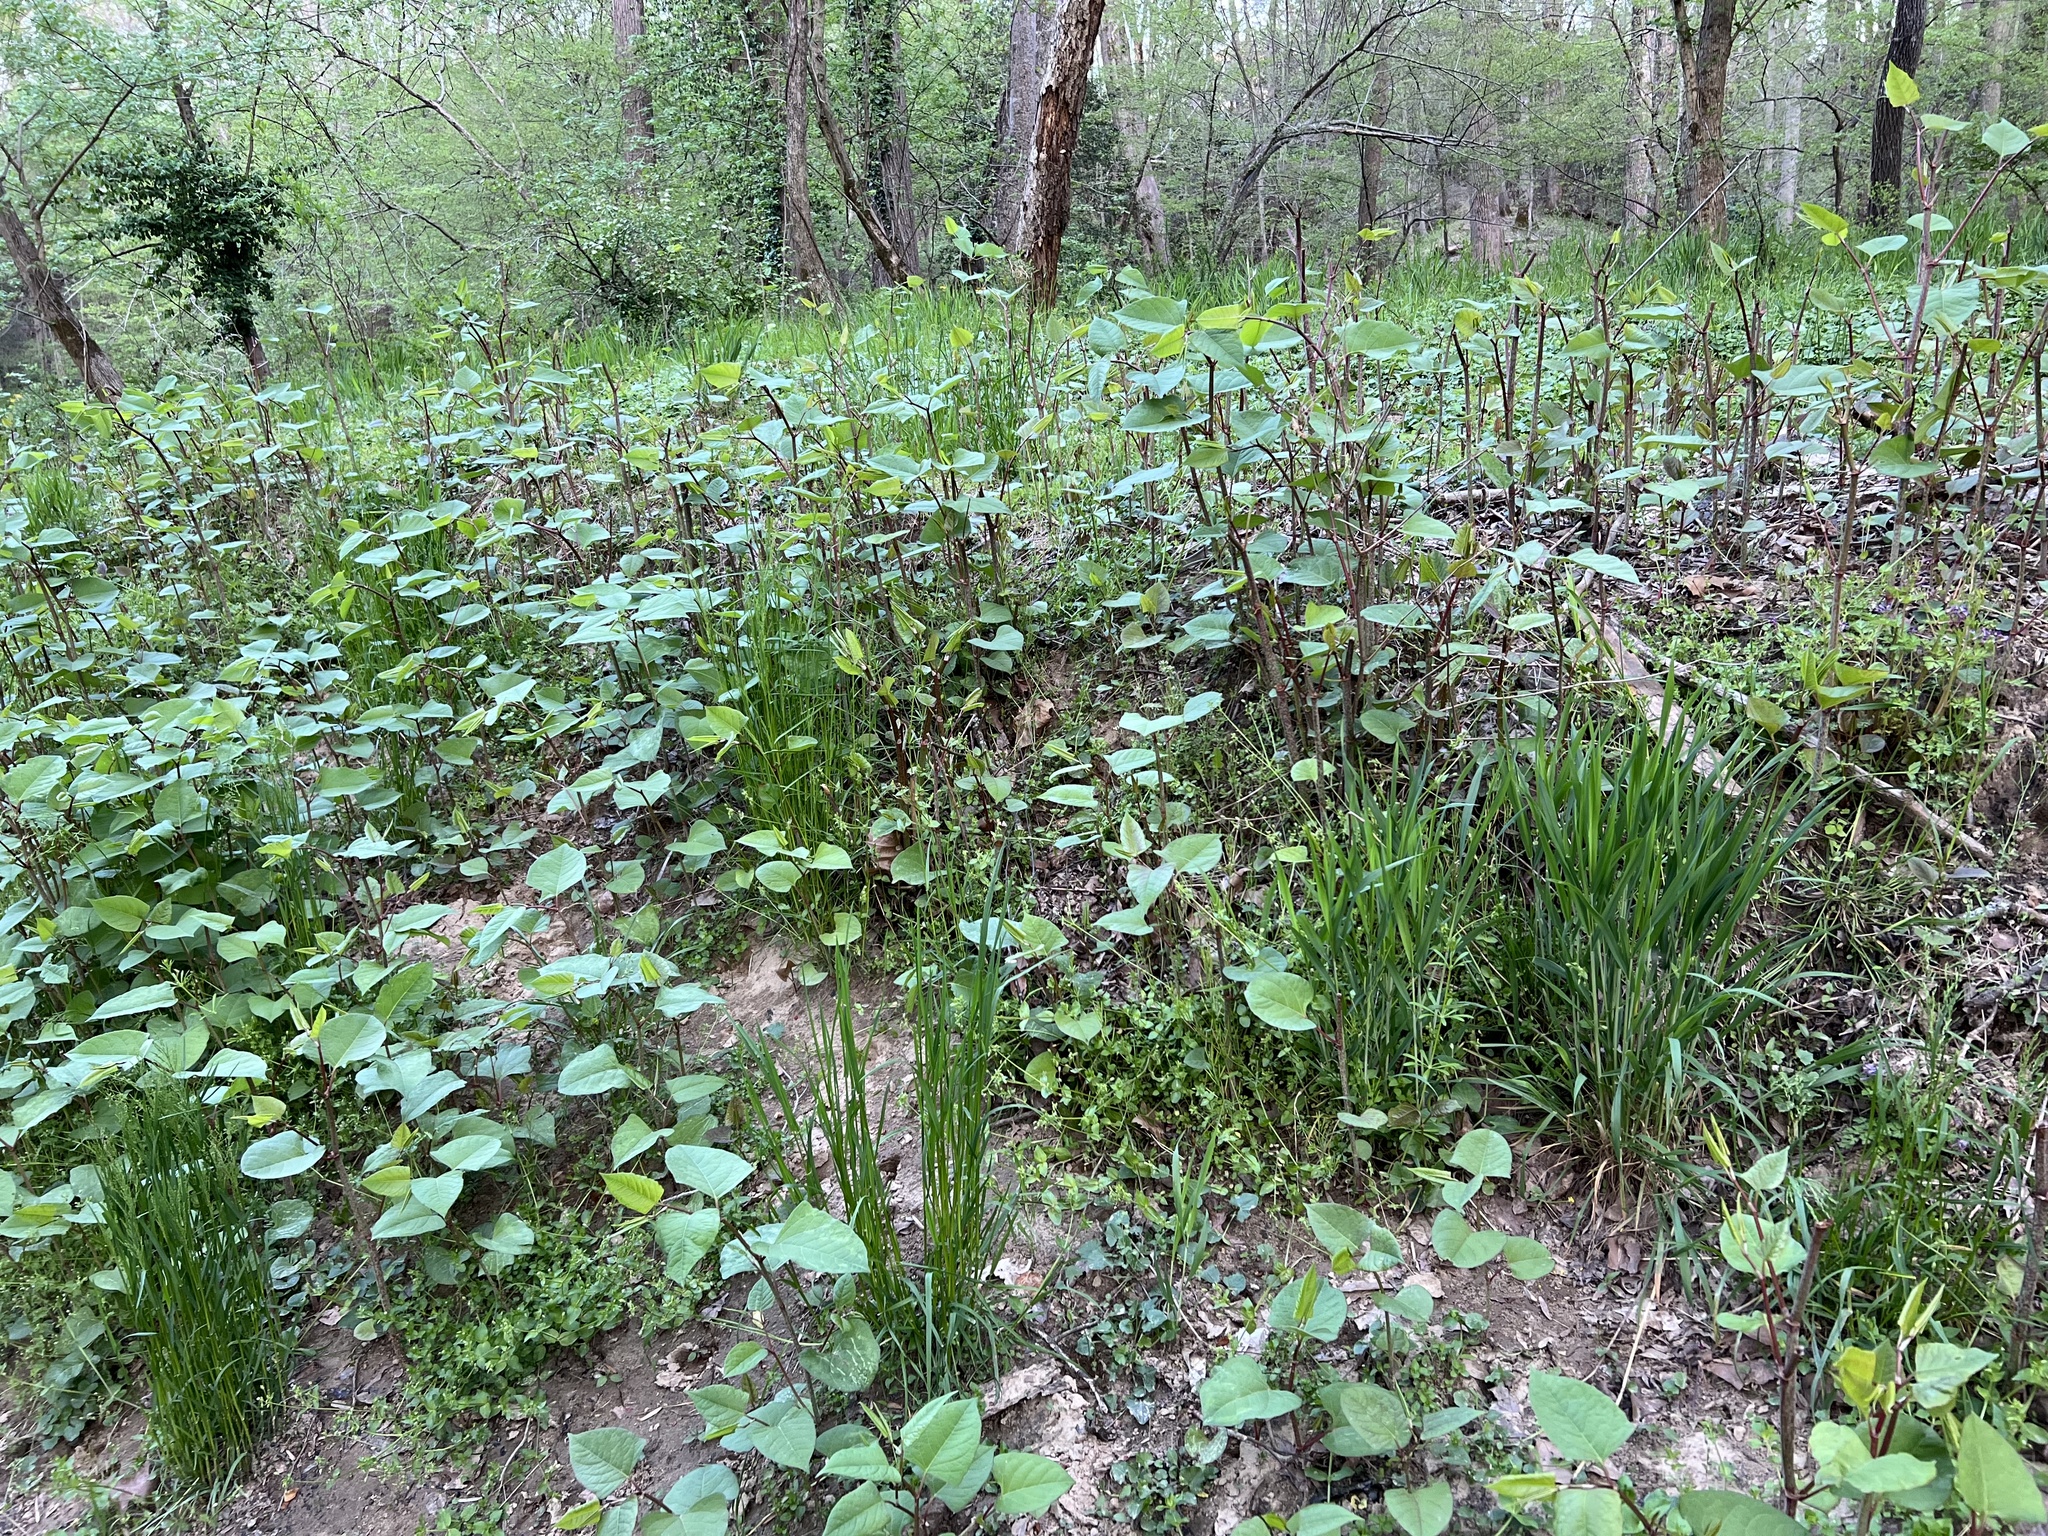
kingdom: Plantae
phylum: Tracheophyta
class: Magnoliopsida
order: Caryophyllales
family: Polygonaceae
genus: Reynoutria
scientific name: Reynoutria japonica
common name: Japanese knotweed
